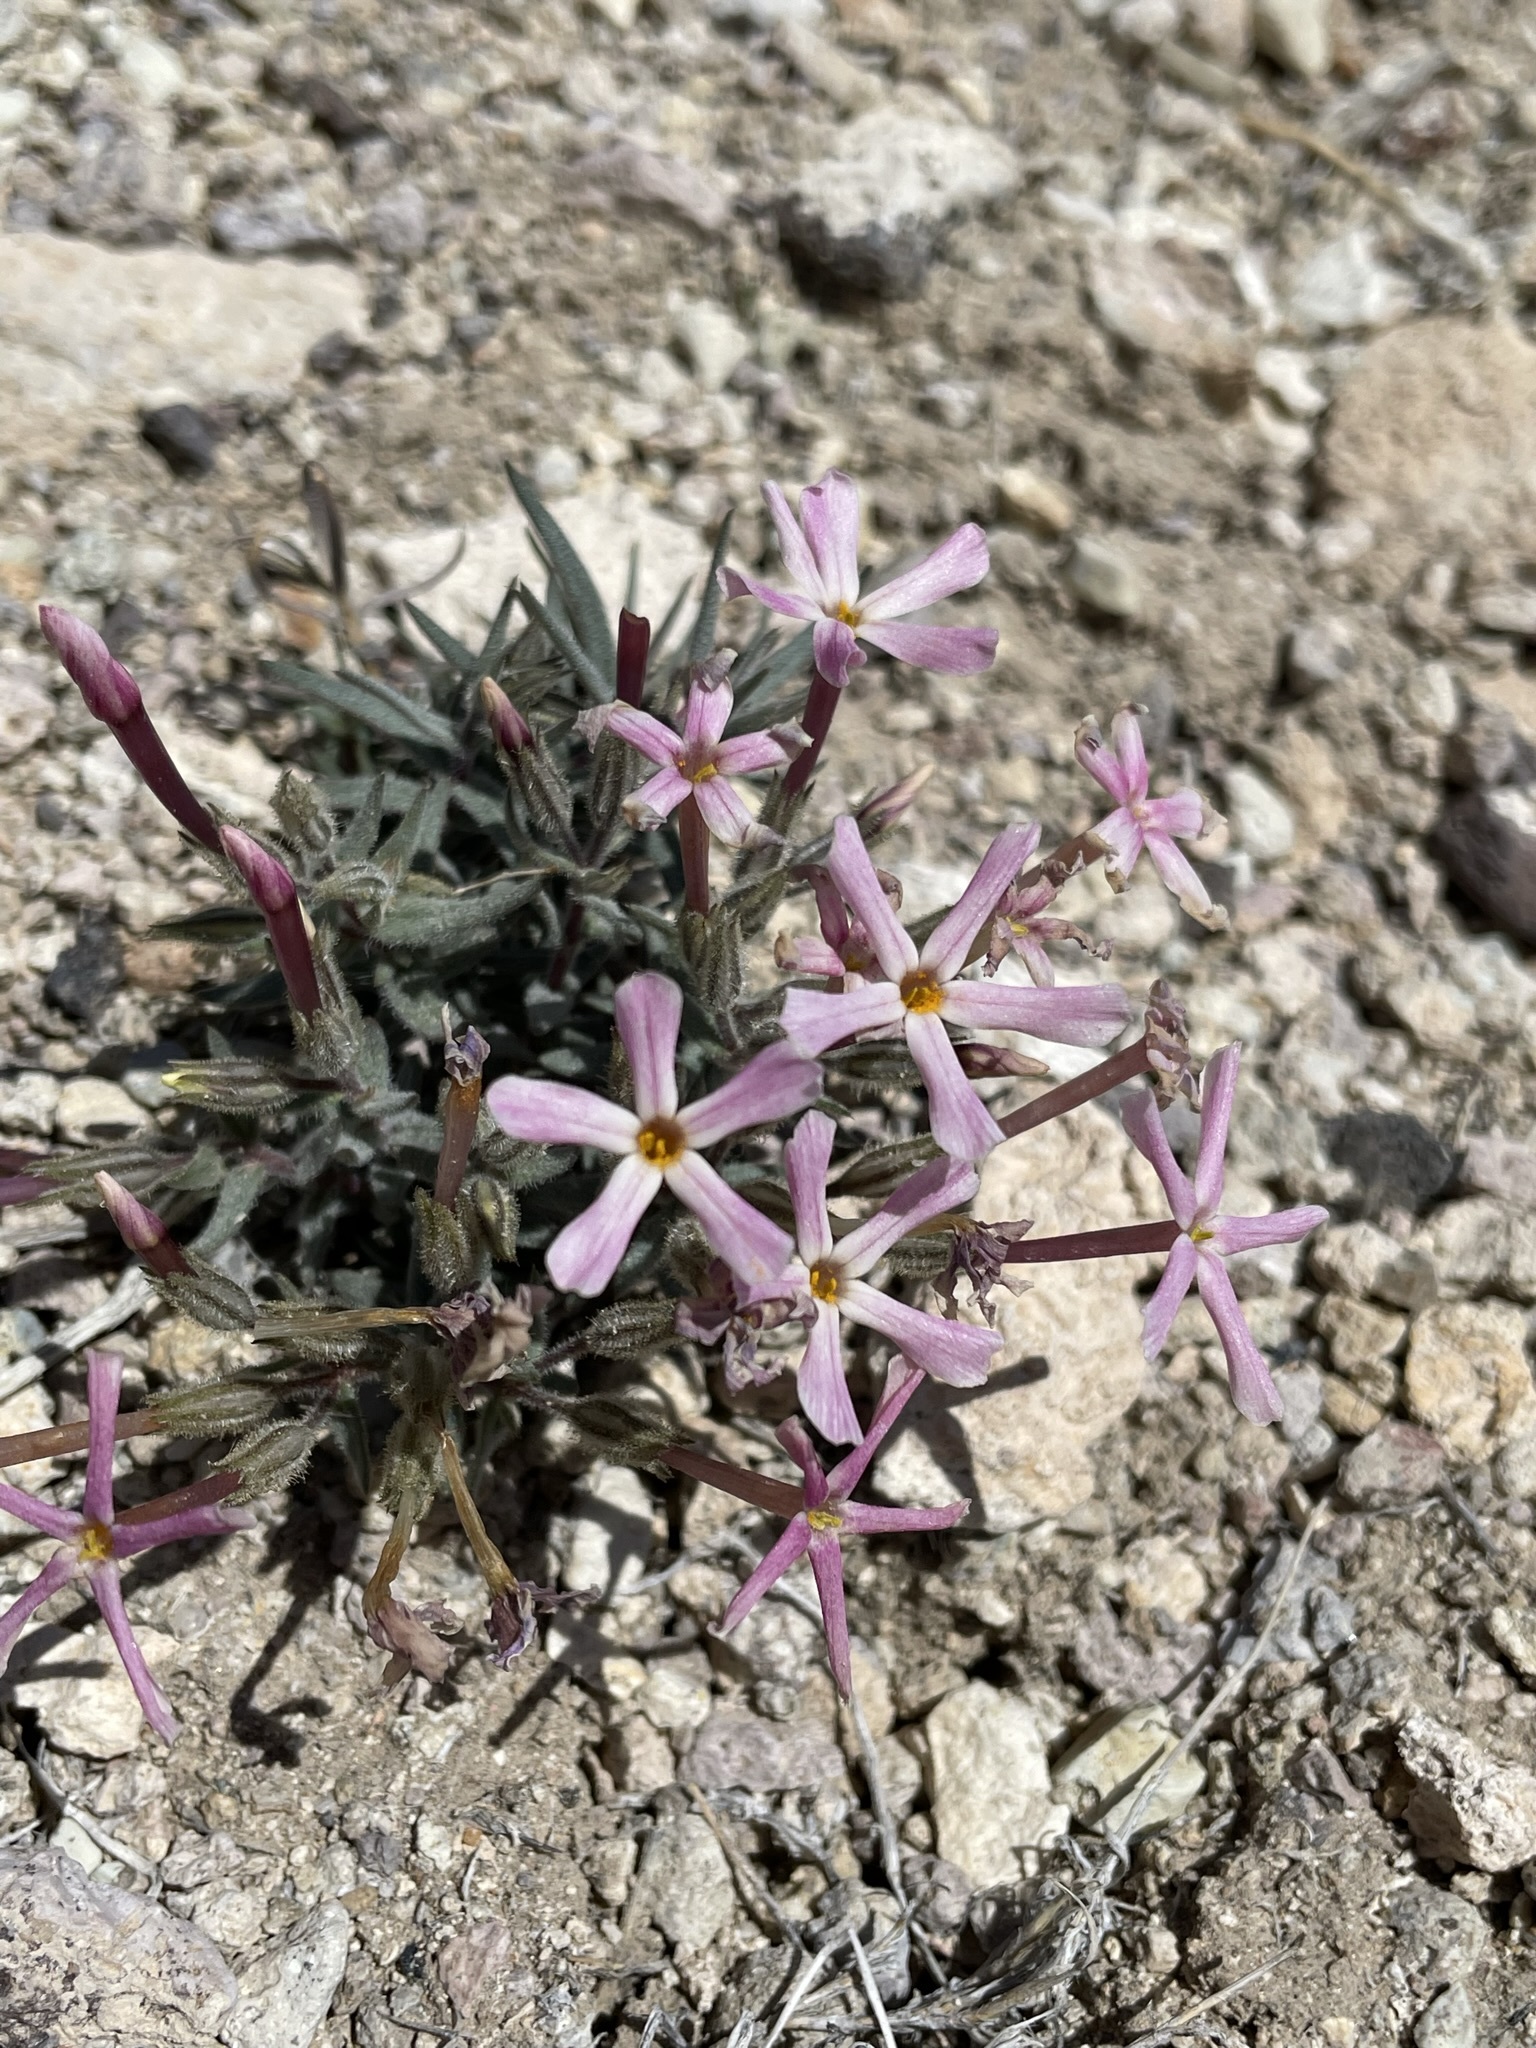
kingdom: Plantae
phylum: Tracheophyta
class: Magnoliopsida
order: Ericales
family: Polemoniaceae
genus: Phlox
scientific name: Phlox longifolia
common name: Longleaf phlox
